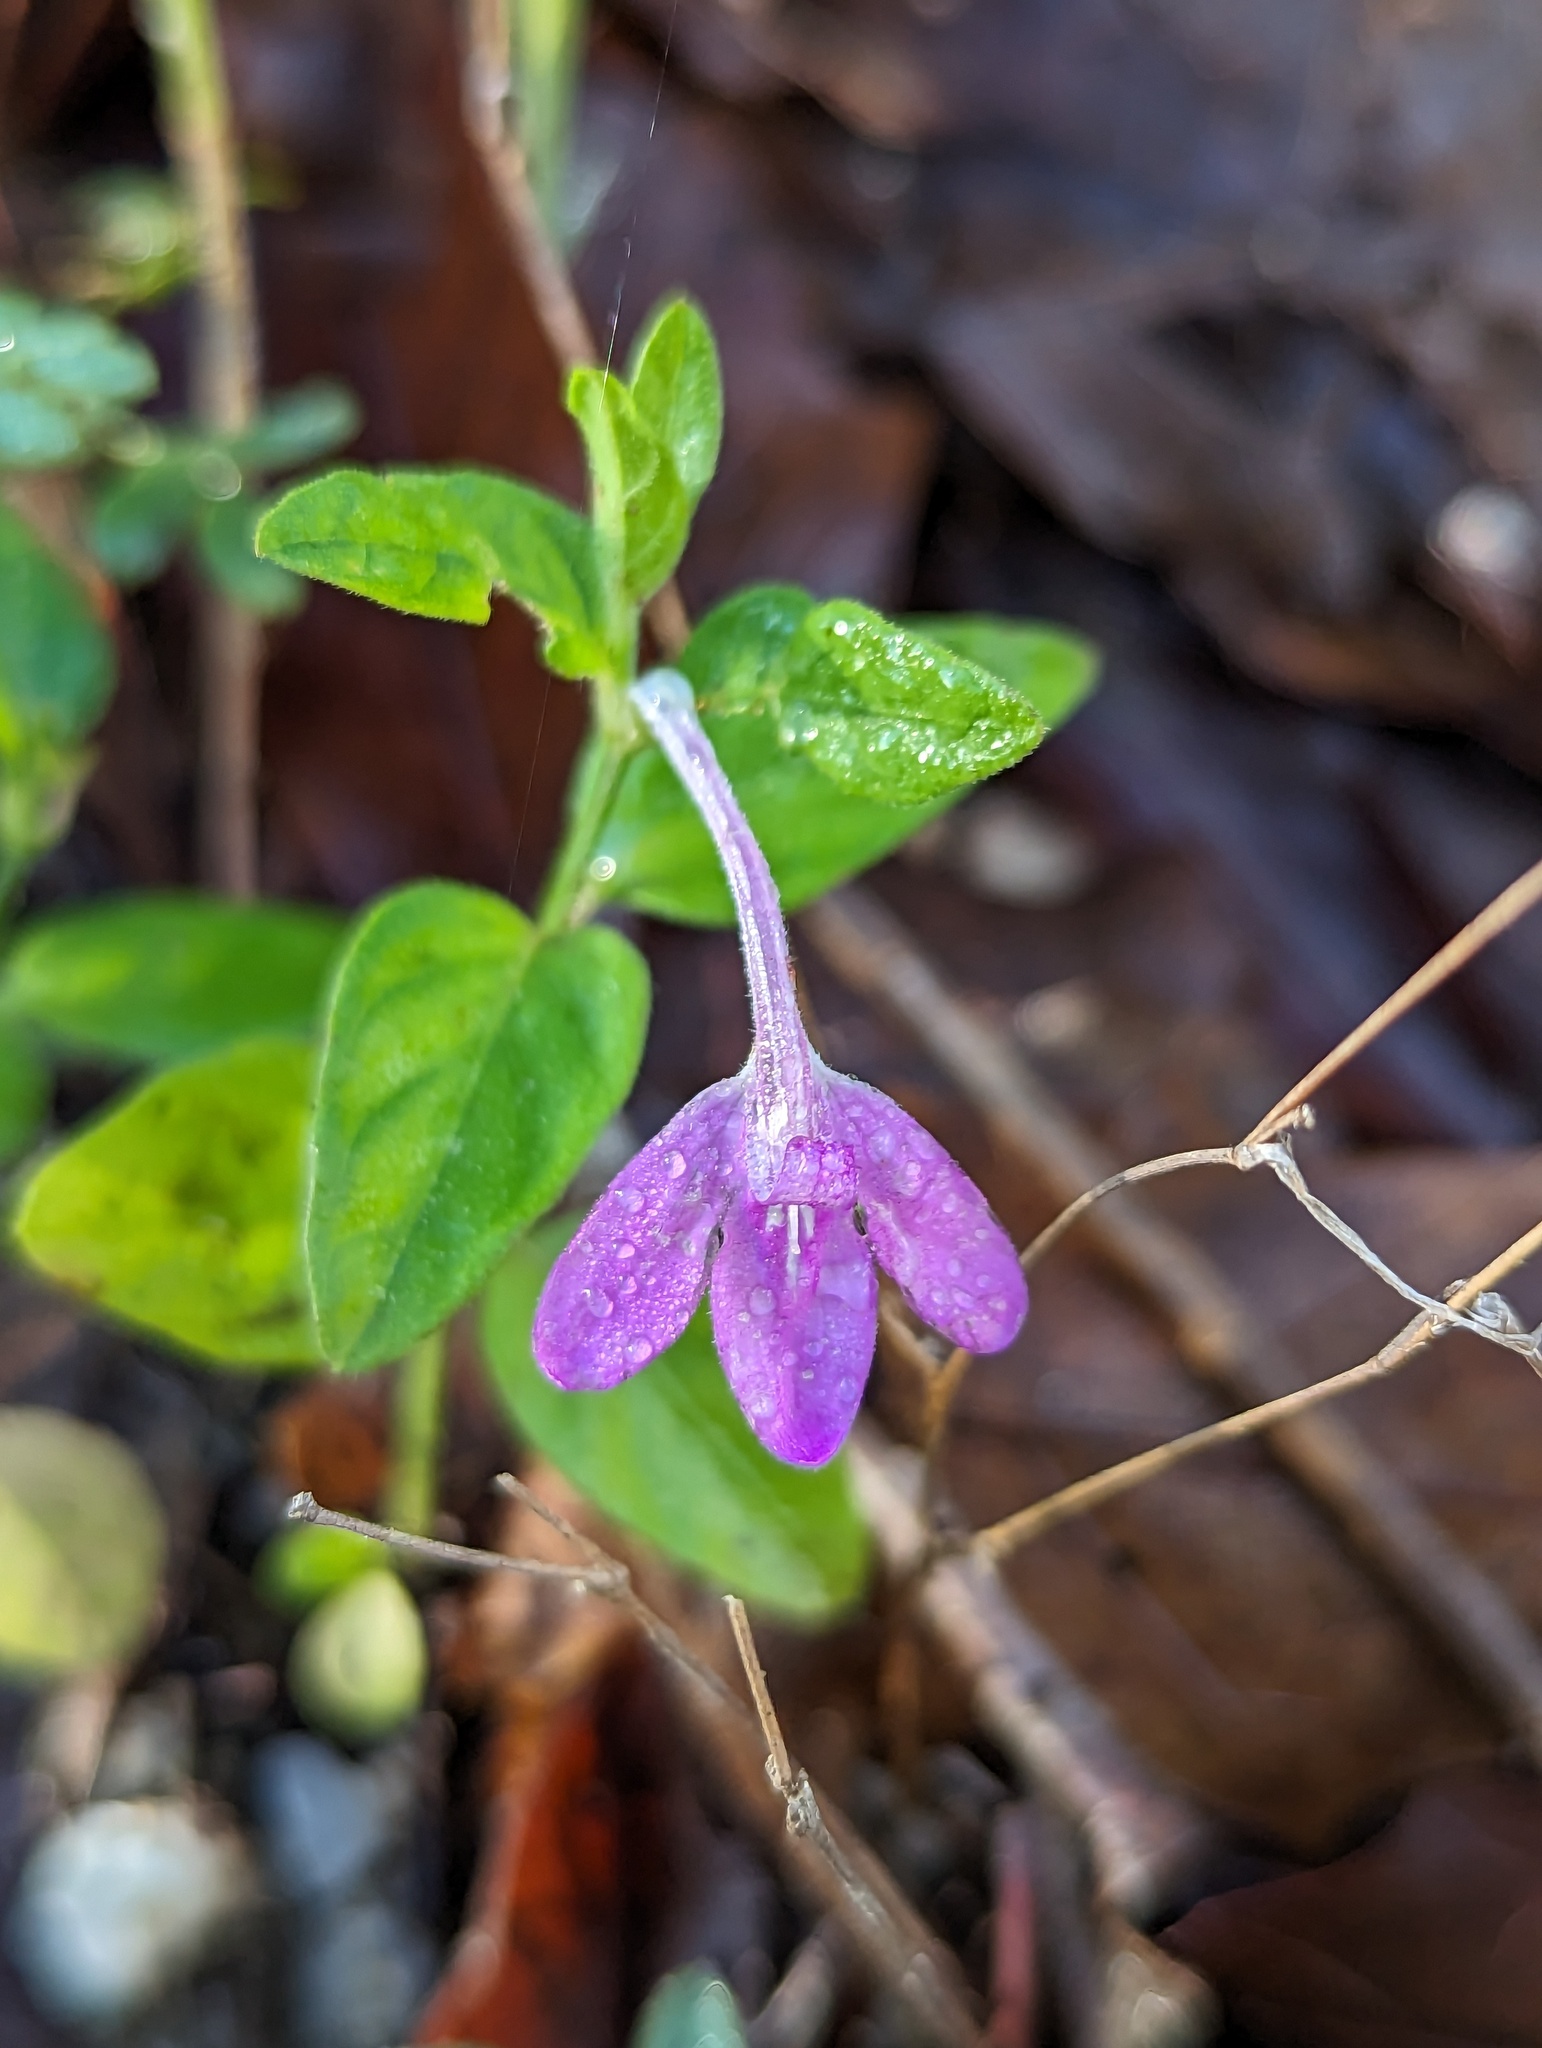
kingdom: Plantae
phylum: Tracheophyta
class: Magnoliopsida
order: Lamiales
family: Acanthaceae
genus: Dianthera
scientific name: Dianthera incerta
